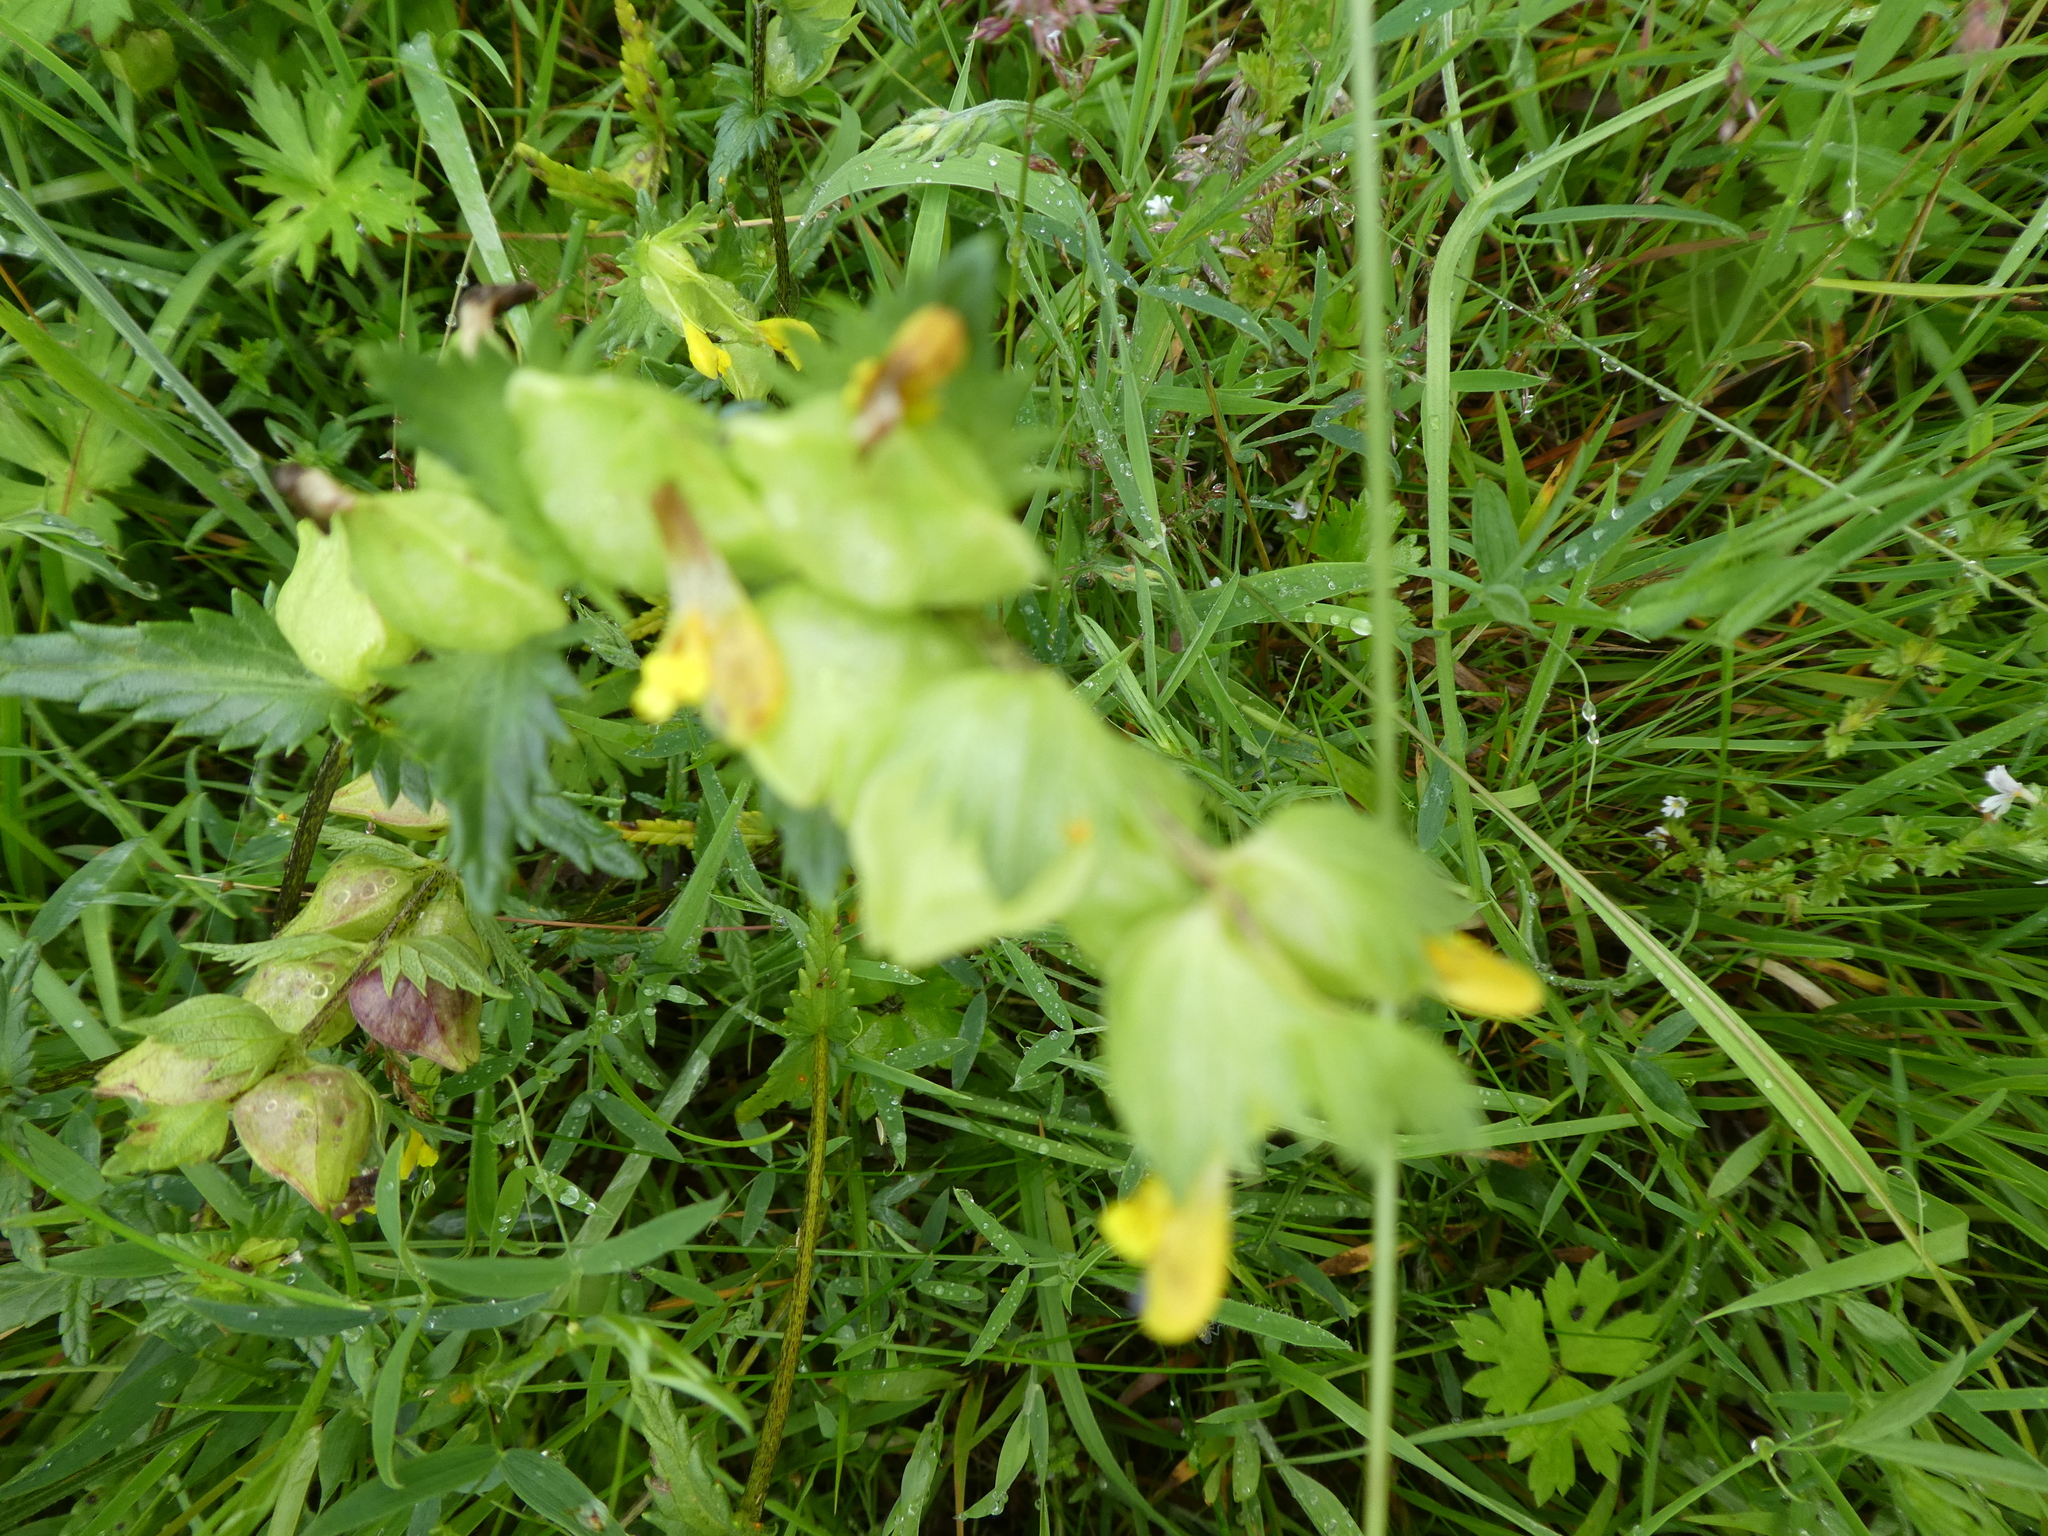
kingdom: Plantae
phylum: Tracheophyta
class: Magnoliopsida
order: Lamiales
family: Orobanchaceae
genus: Rhinanthus
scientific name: Rhinanthus minor
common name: Yellow-rattle
